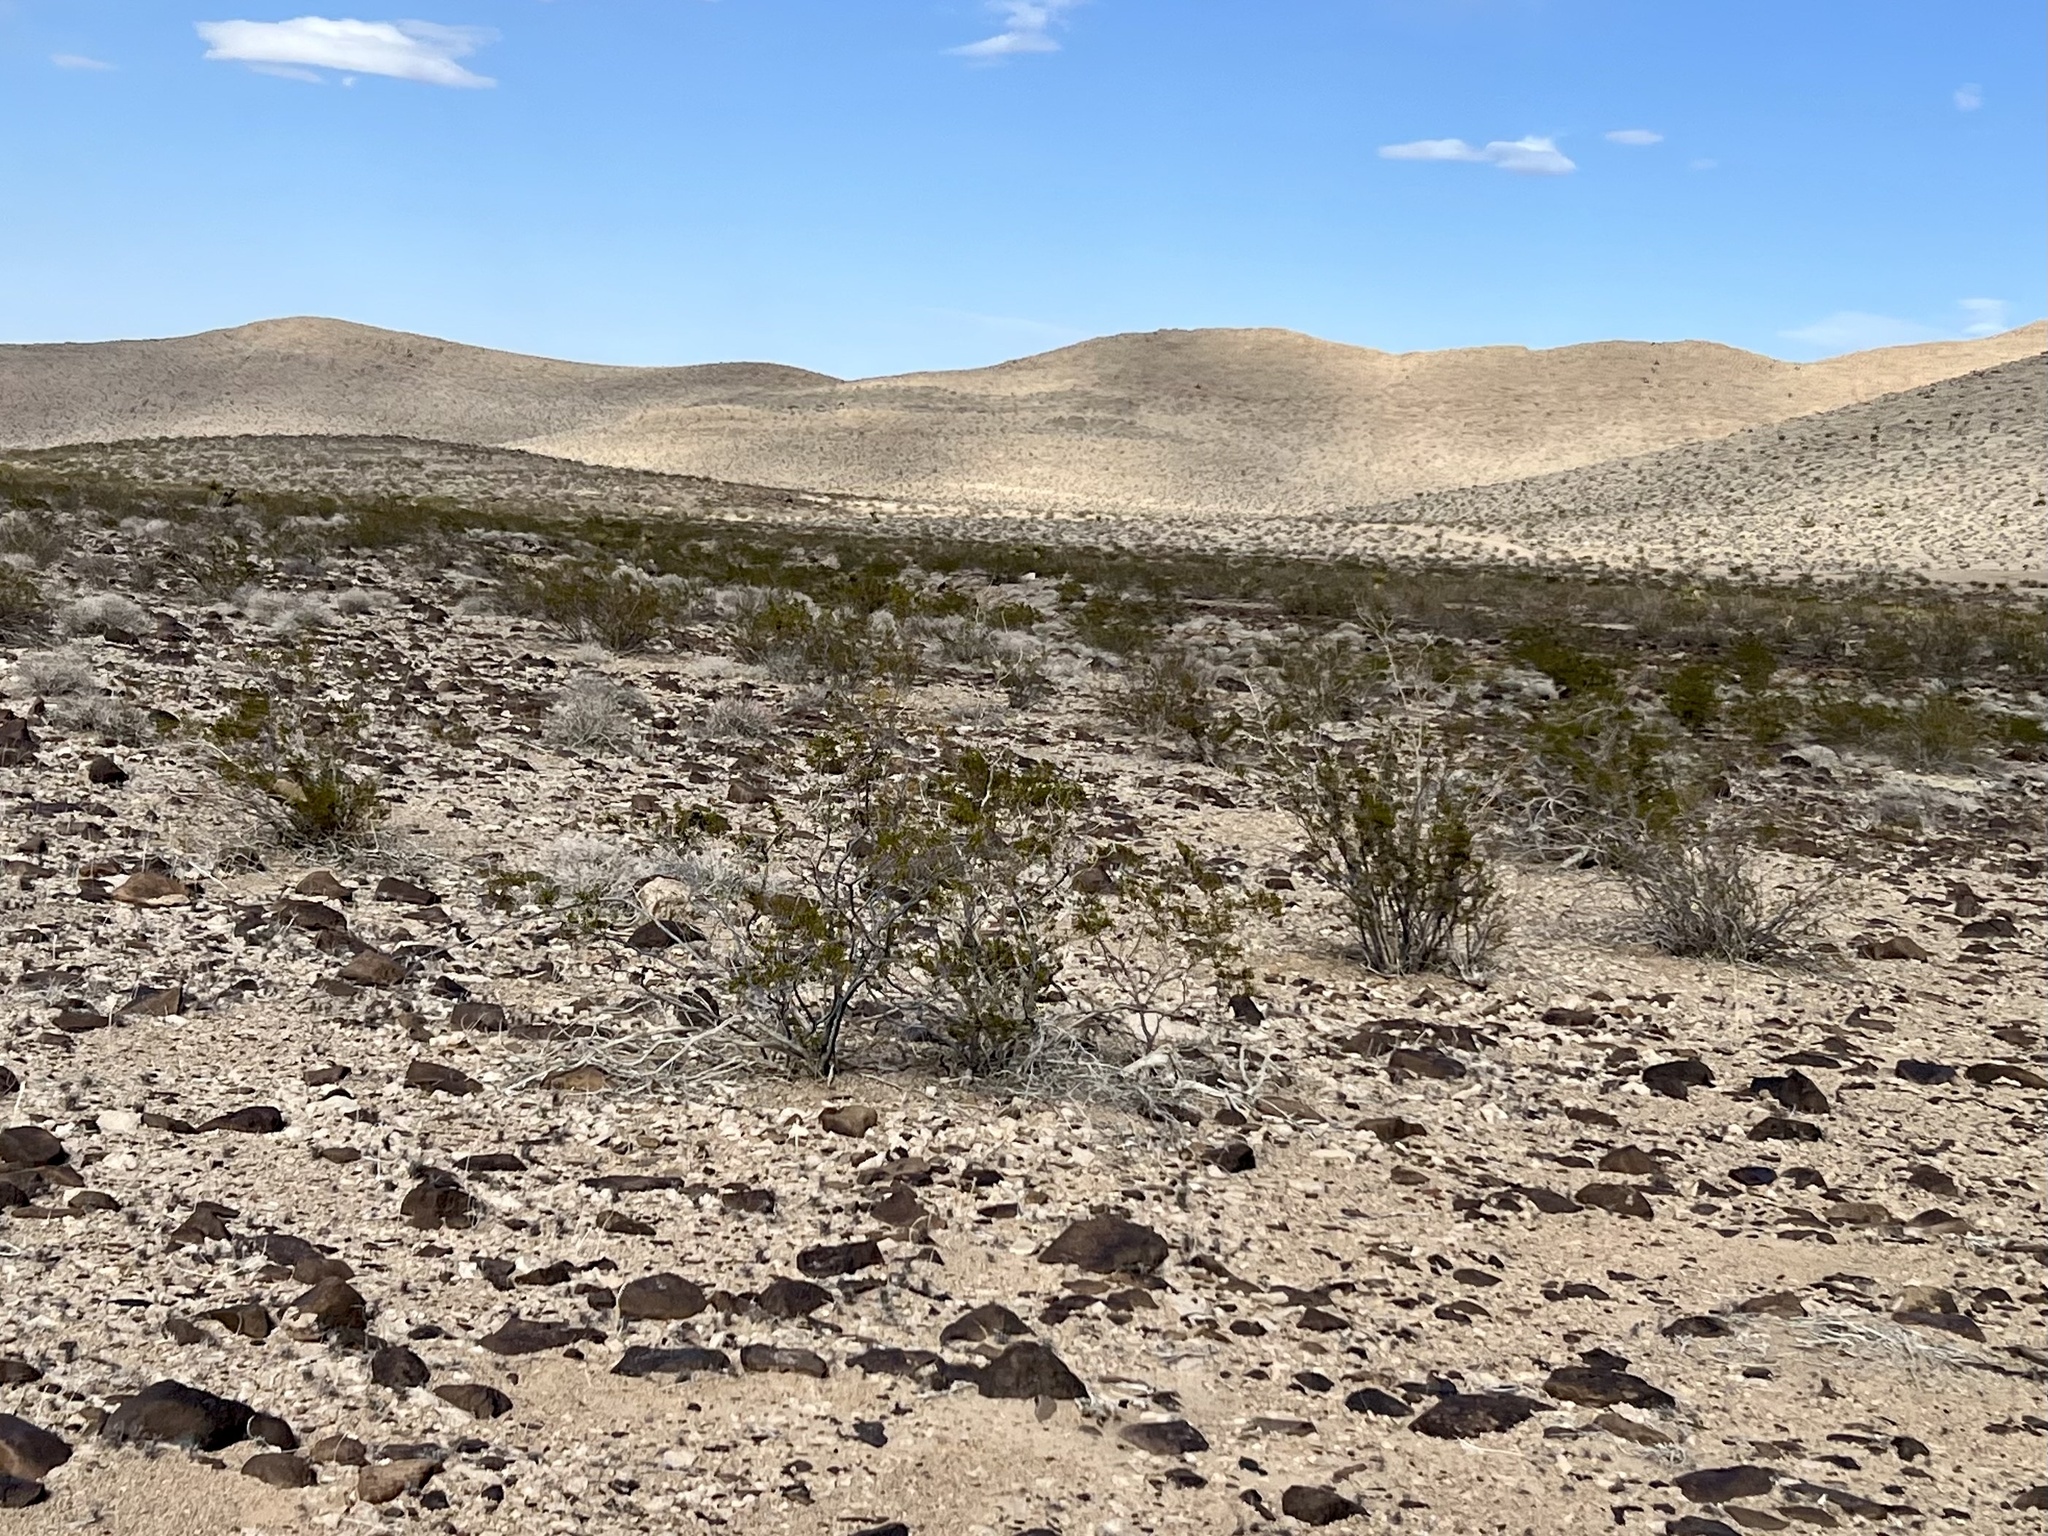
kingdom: Plantae
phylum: Tracheophyta
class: Magnoliopsida
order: Zygophyllales
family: Zygophyllaceae
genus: Larrea
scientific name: Larrea tridentata
